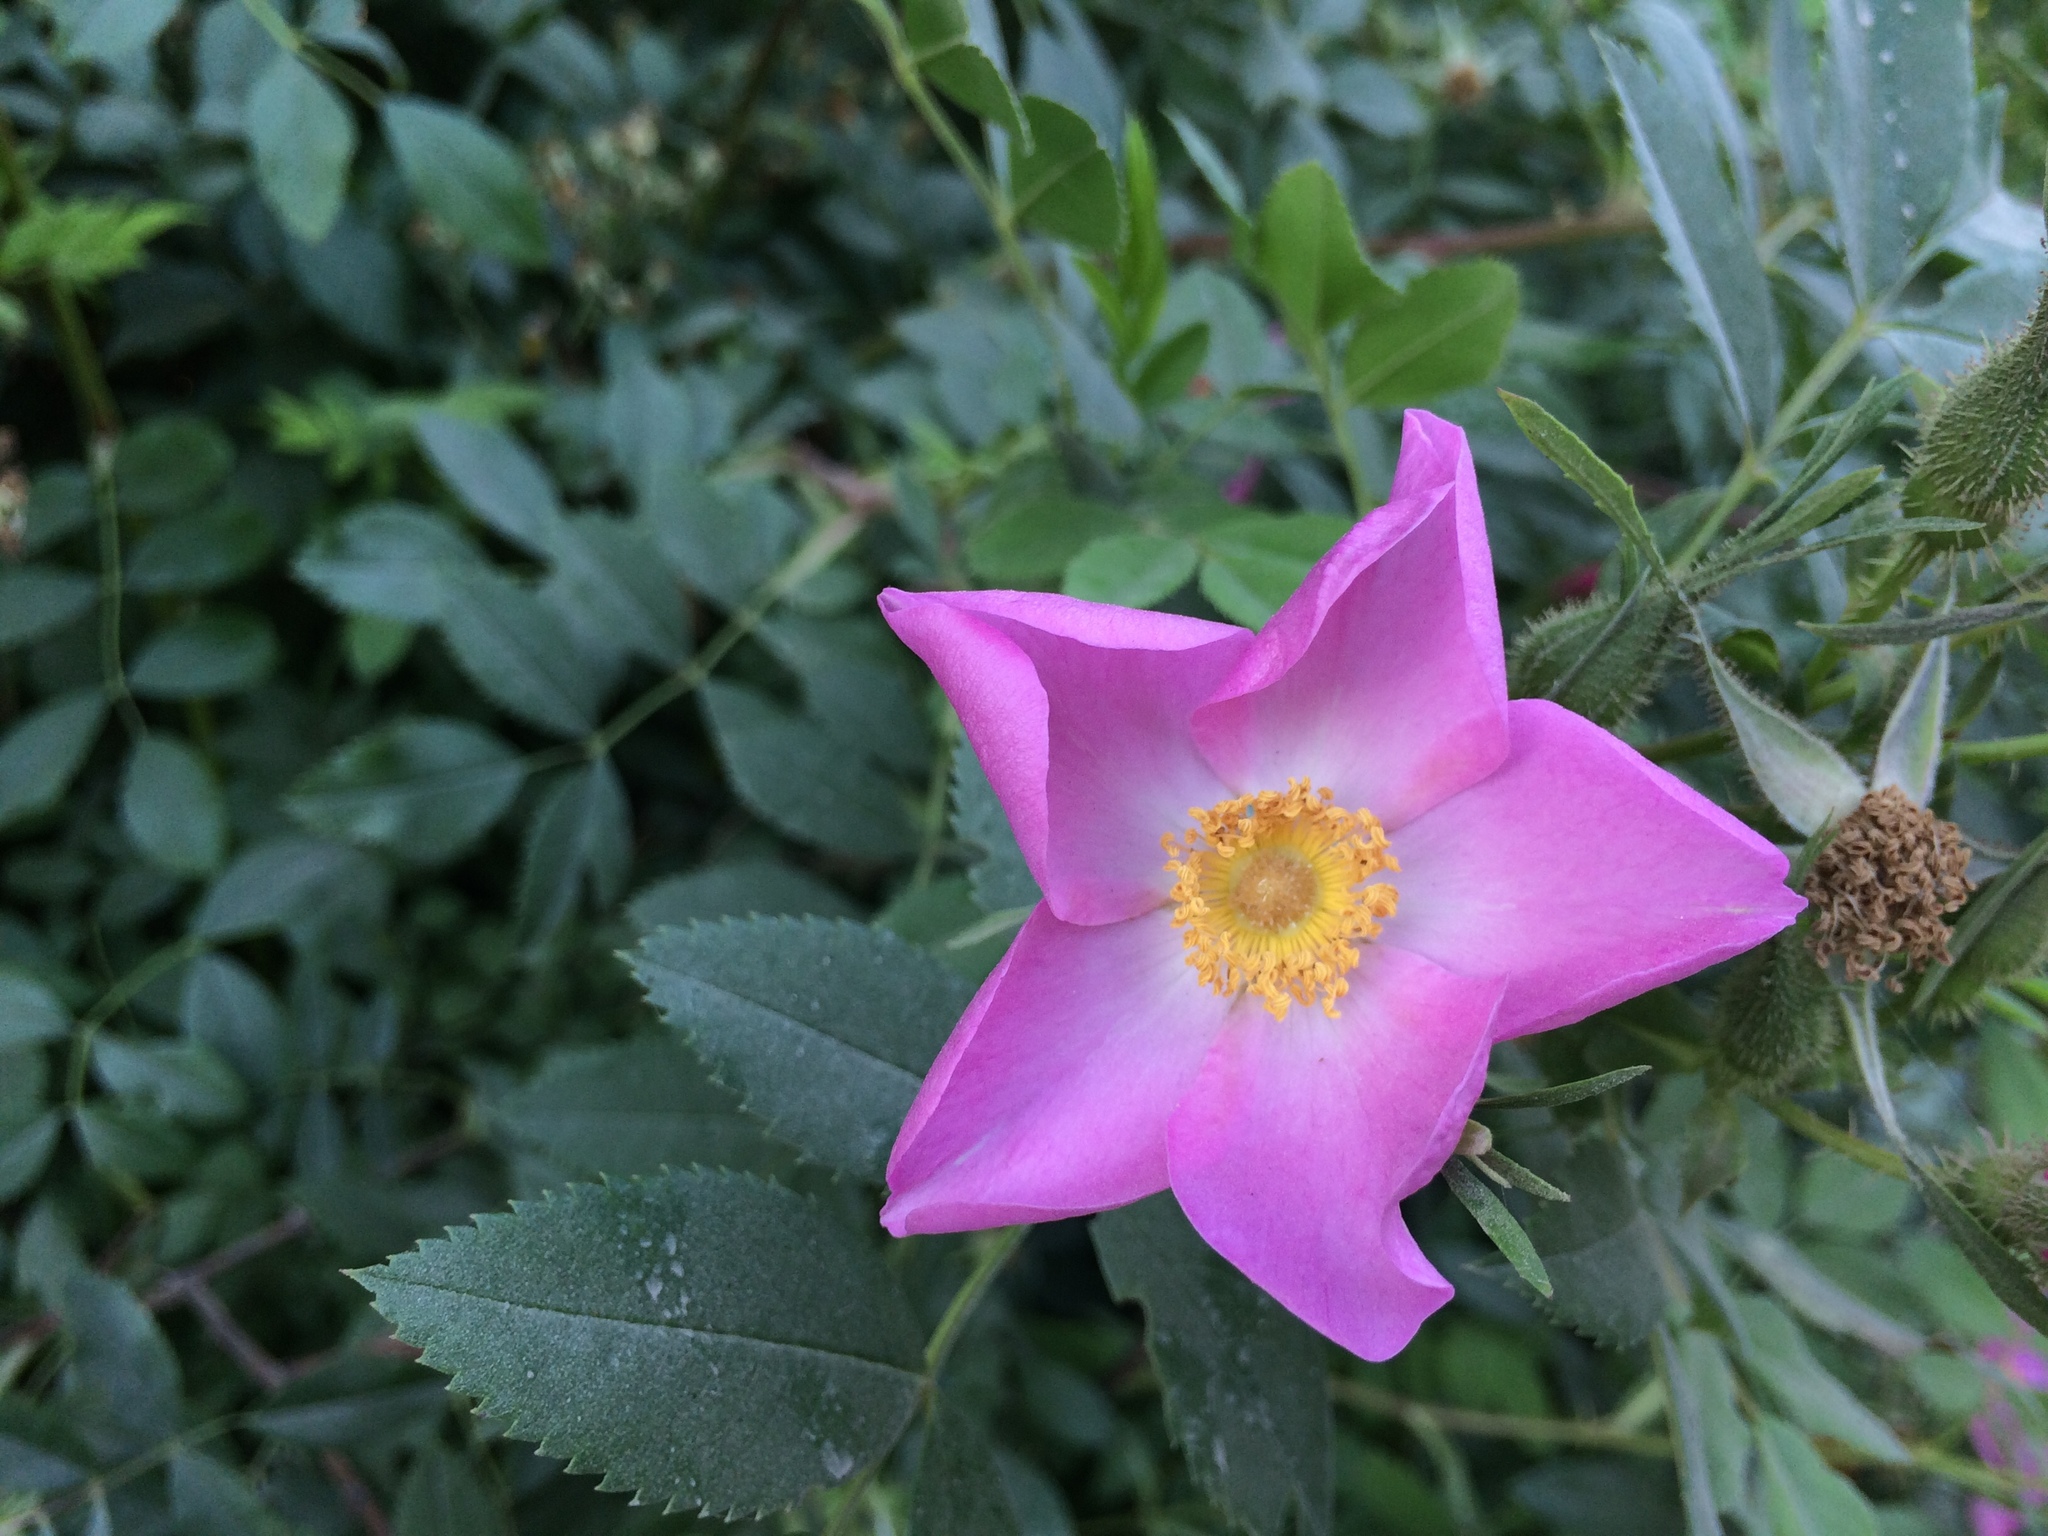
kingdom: Plantae
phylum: Tracheophyta
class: Magnoliopsida
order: Rosales
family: Rosaceae
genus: Rosa
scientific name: Rosa rugosa
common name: Japanese rose
